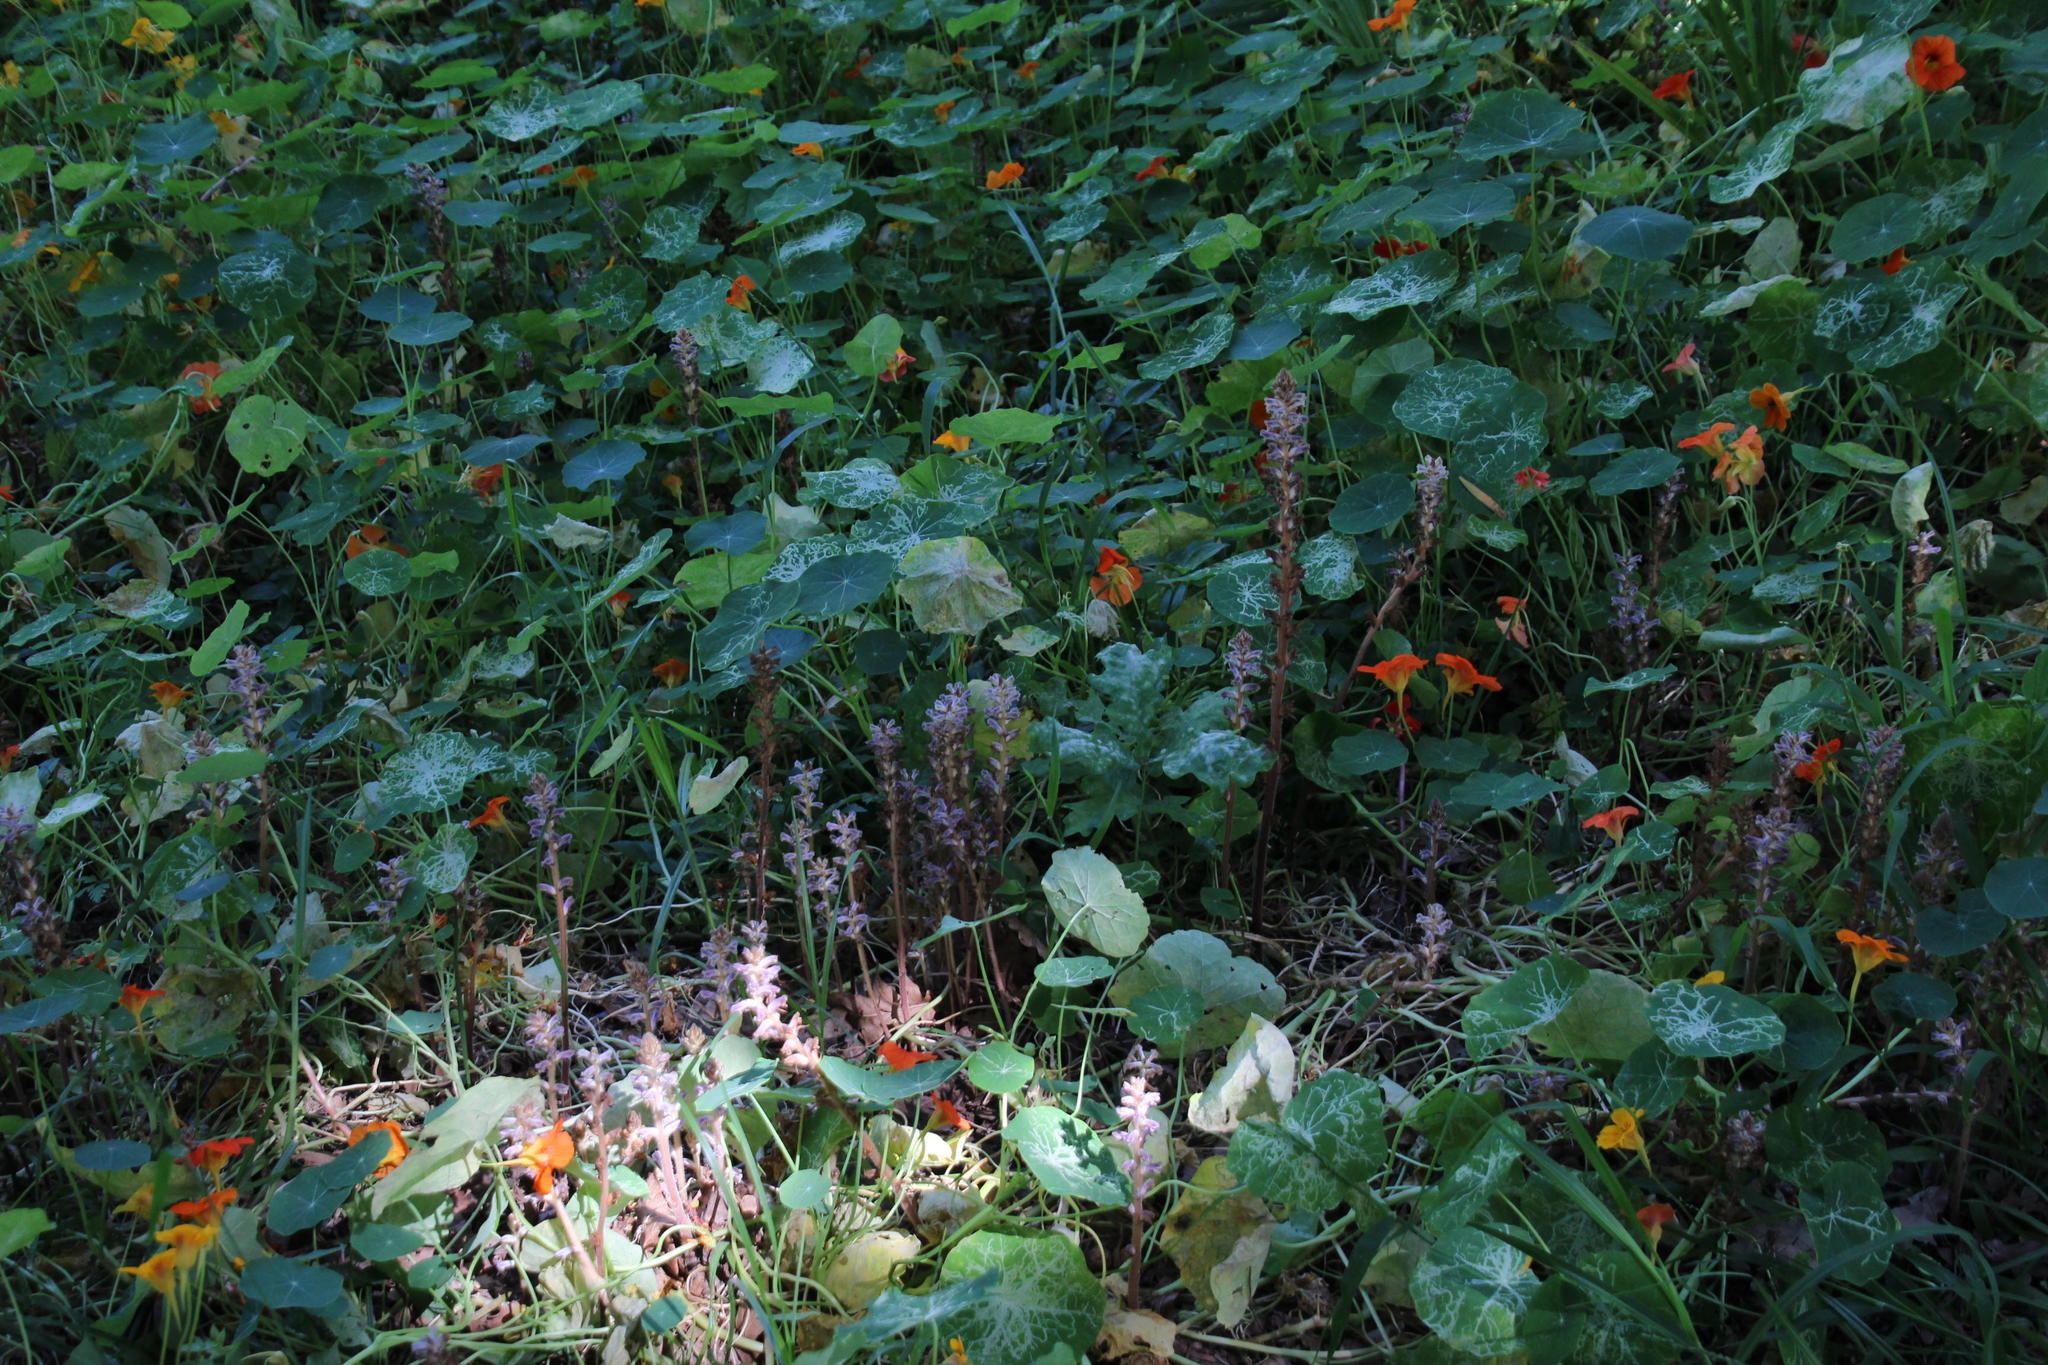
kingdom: Plantae
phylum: Tracheophyta
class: Magnoliopsida
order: Lamiales
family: Orobanchaceae
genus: Orobanche
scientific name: Orobanche minor
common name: Common broomrape
